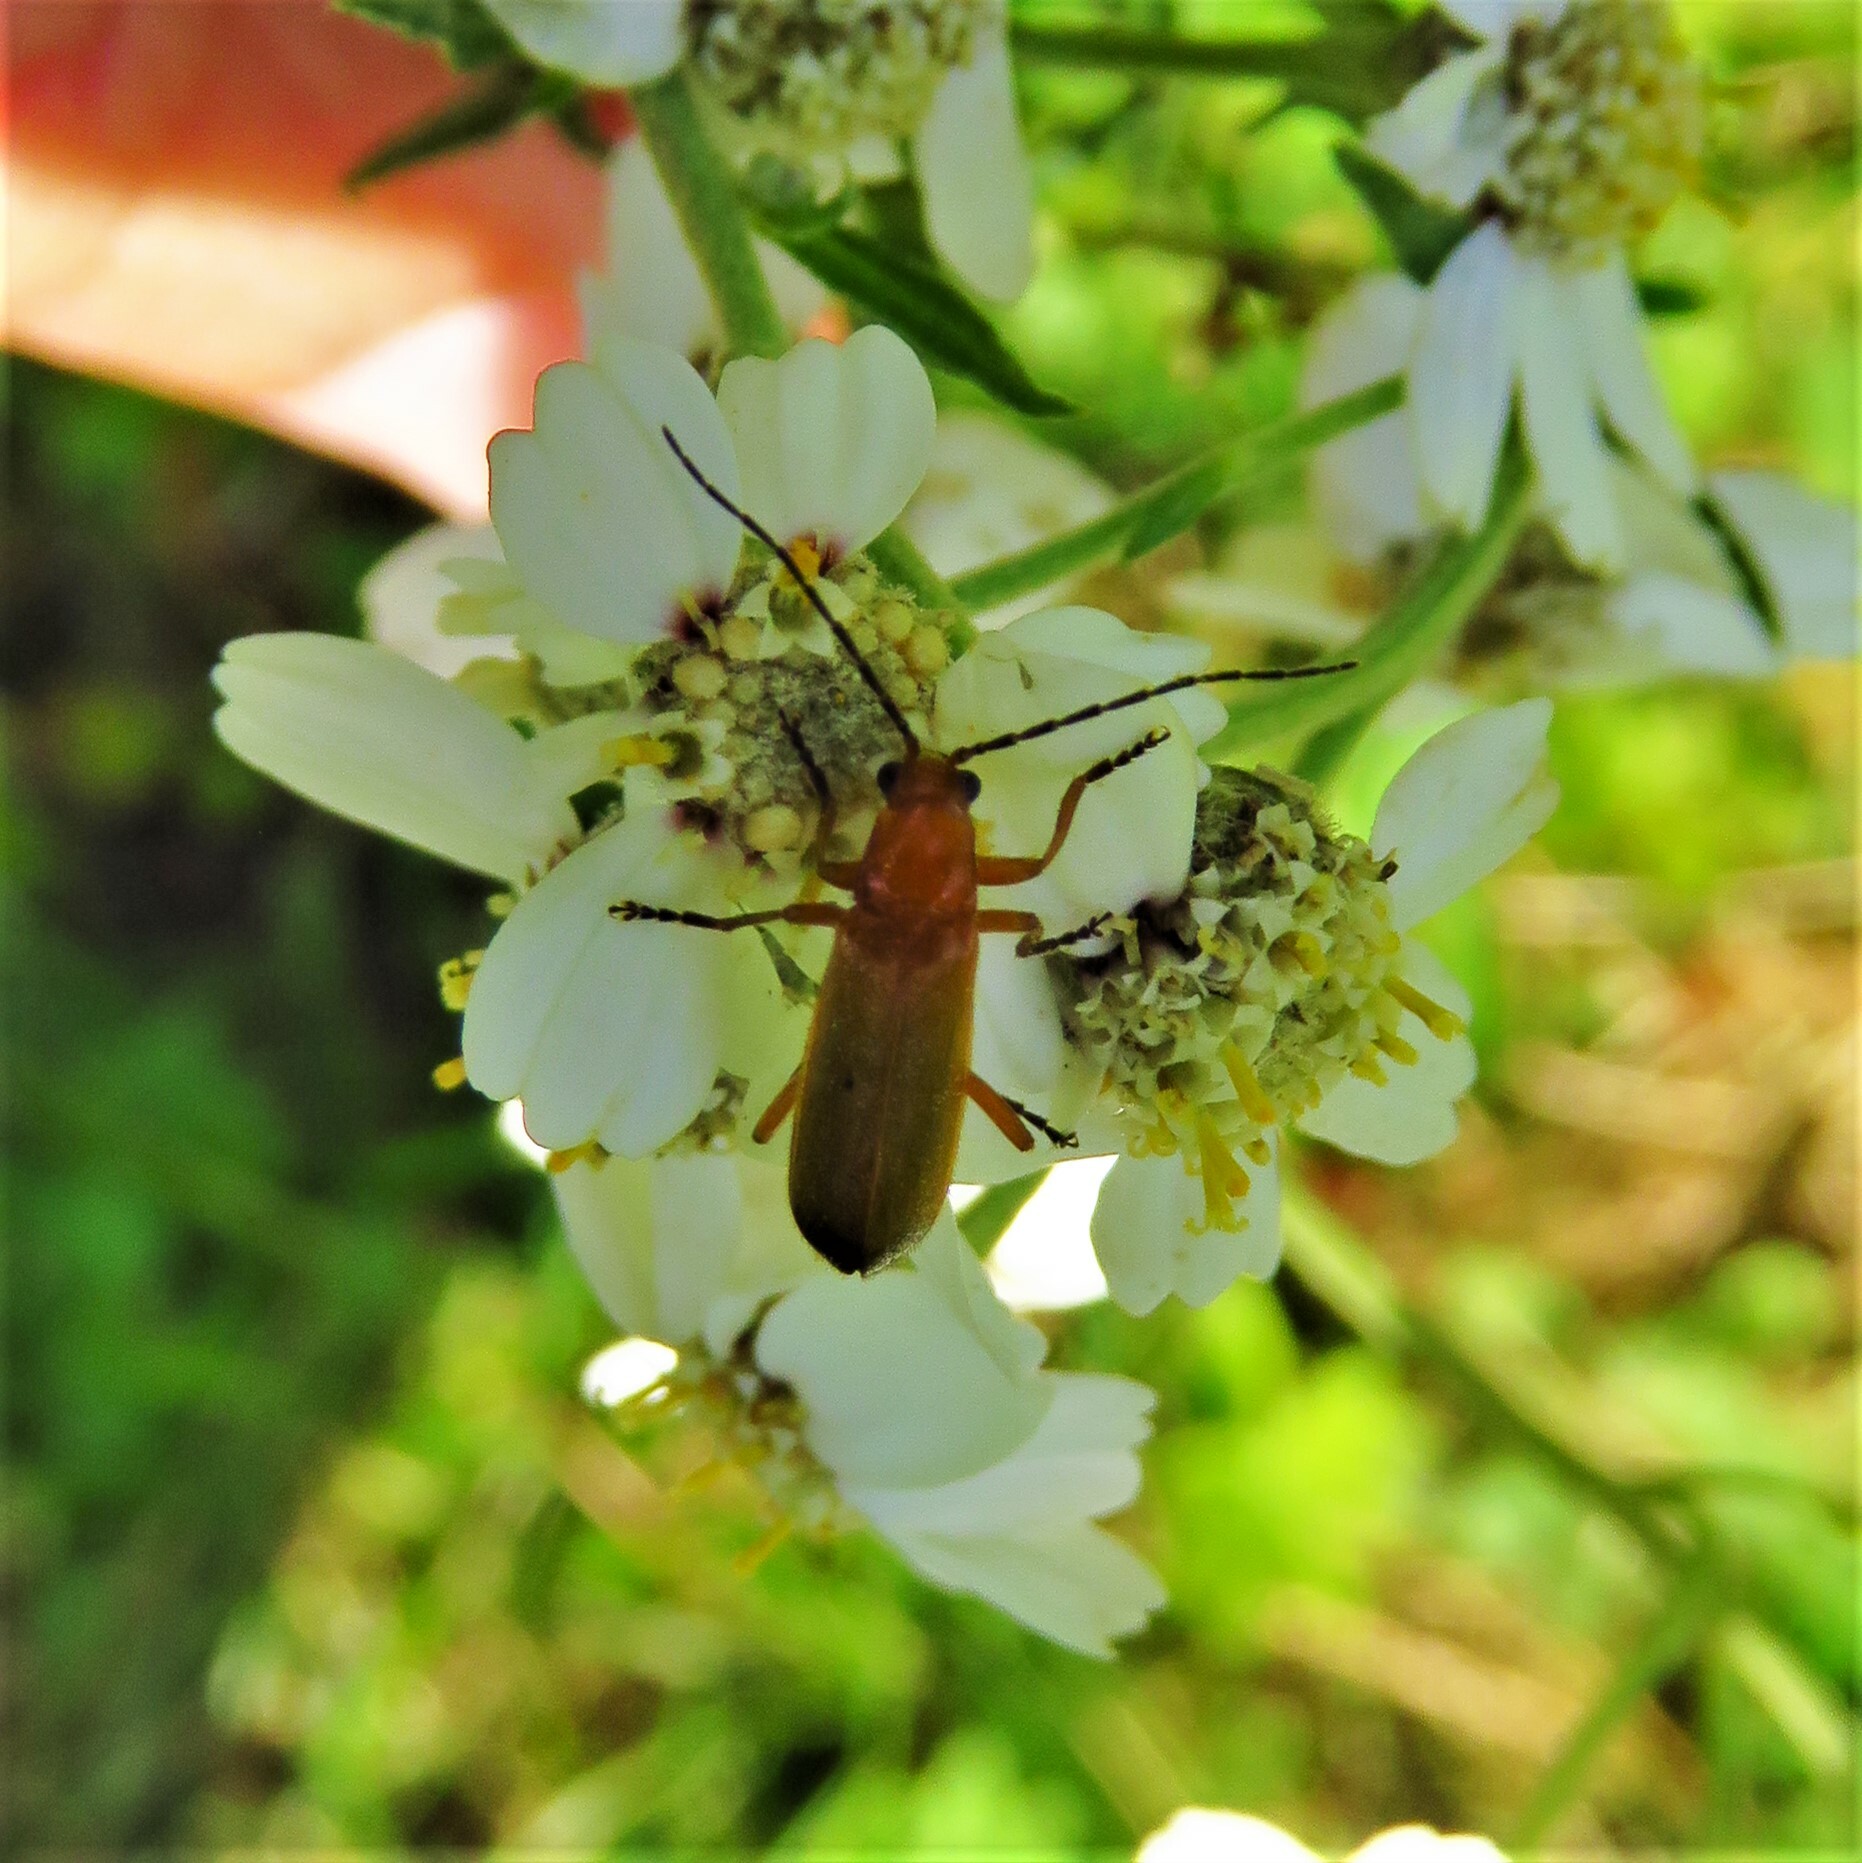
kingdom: Animalia
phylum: Arthropoda
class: Insecta
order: Coleoptera
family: Cantharidae
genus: Rhagonycha
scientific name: Rhagonycha fulva
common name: Common red soldier beetle
